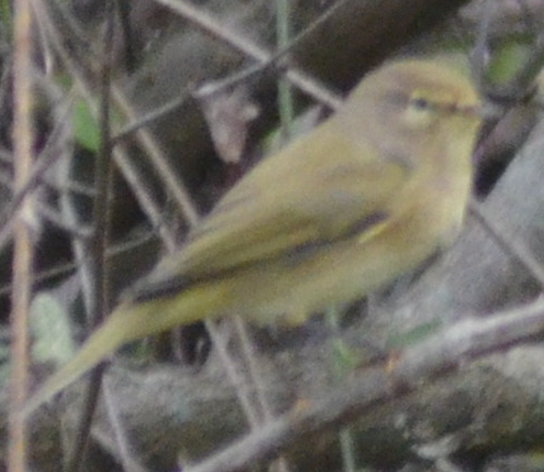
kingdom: Animalia
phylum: Chordata
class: Aves
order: Passeriformes
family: Phylloscopidae
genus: Phylloscopus
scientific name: Phylloscopus collybita
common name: Common chiffchaff
